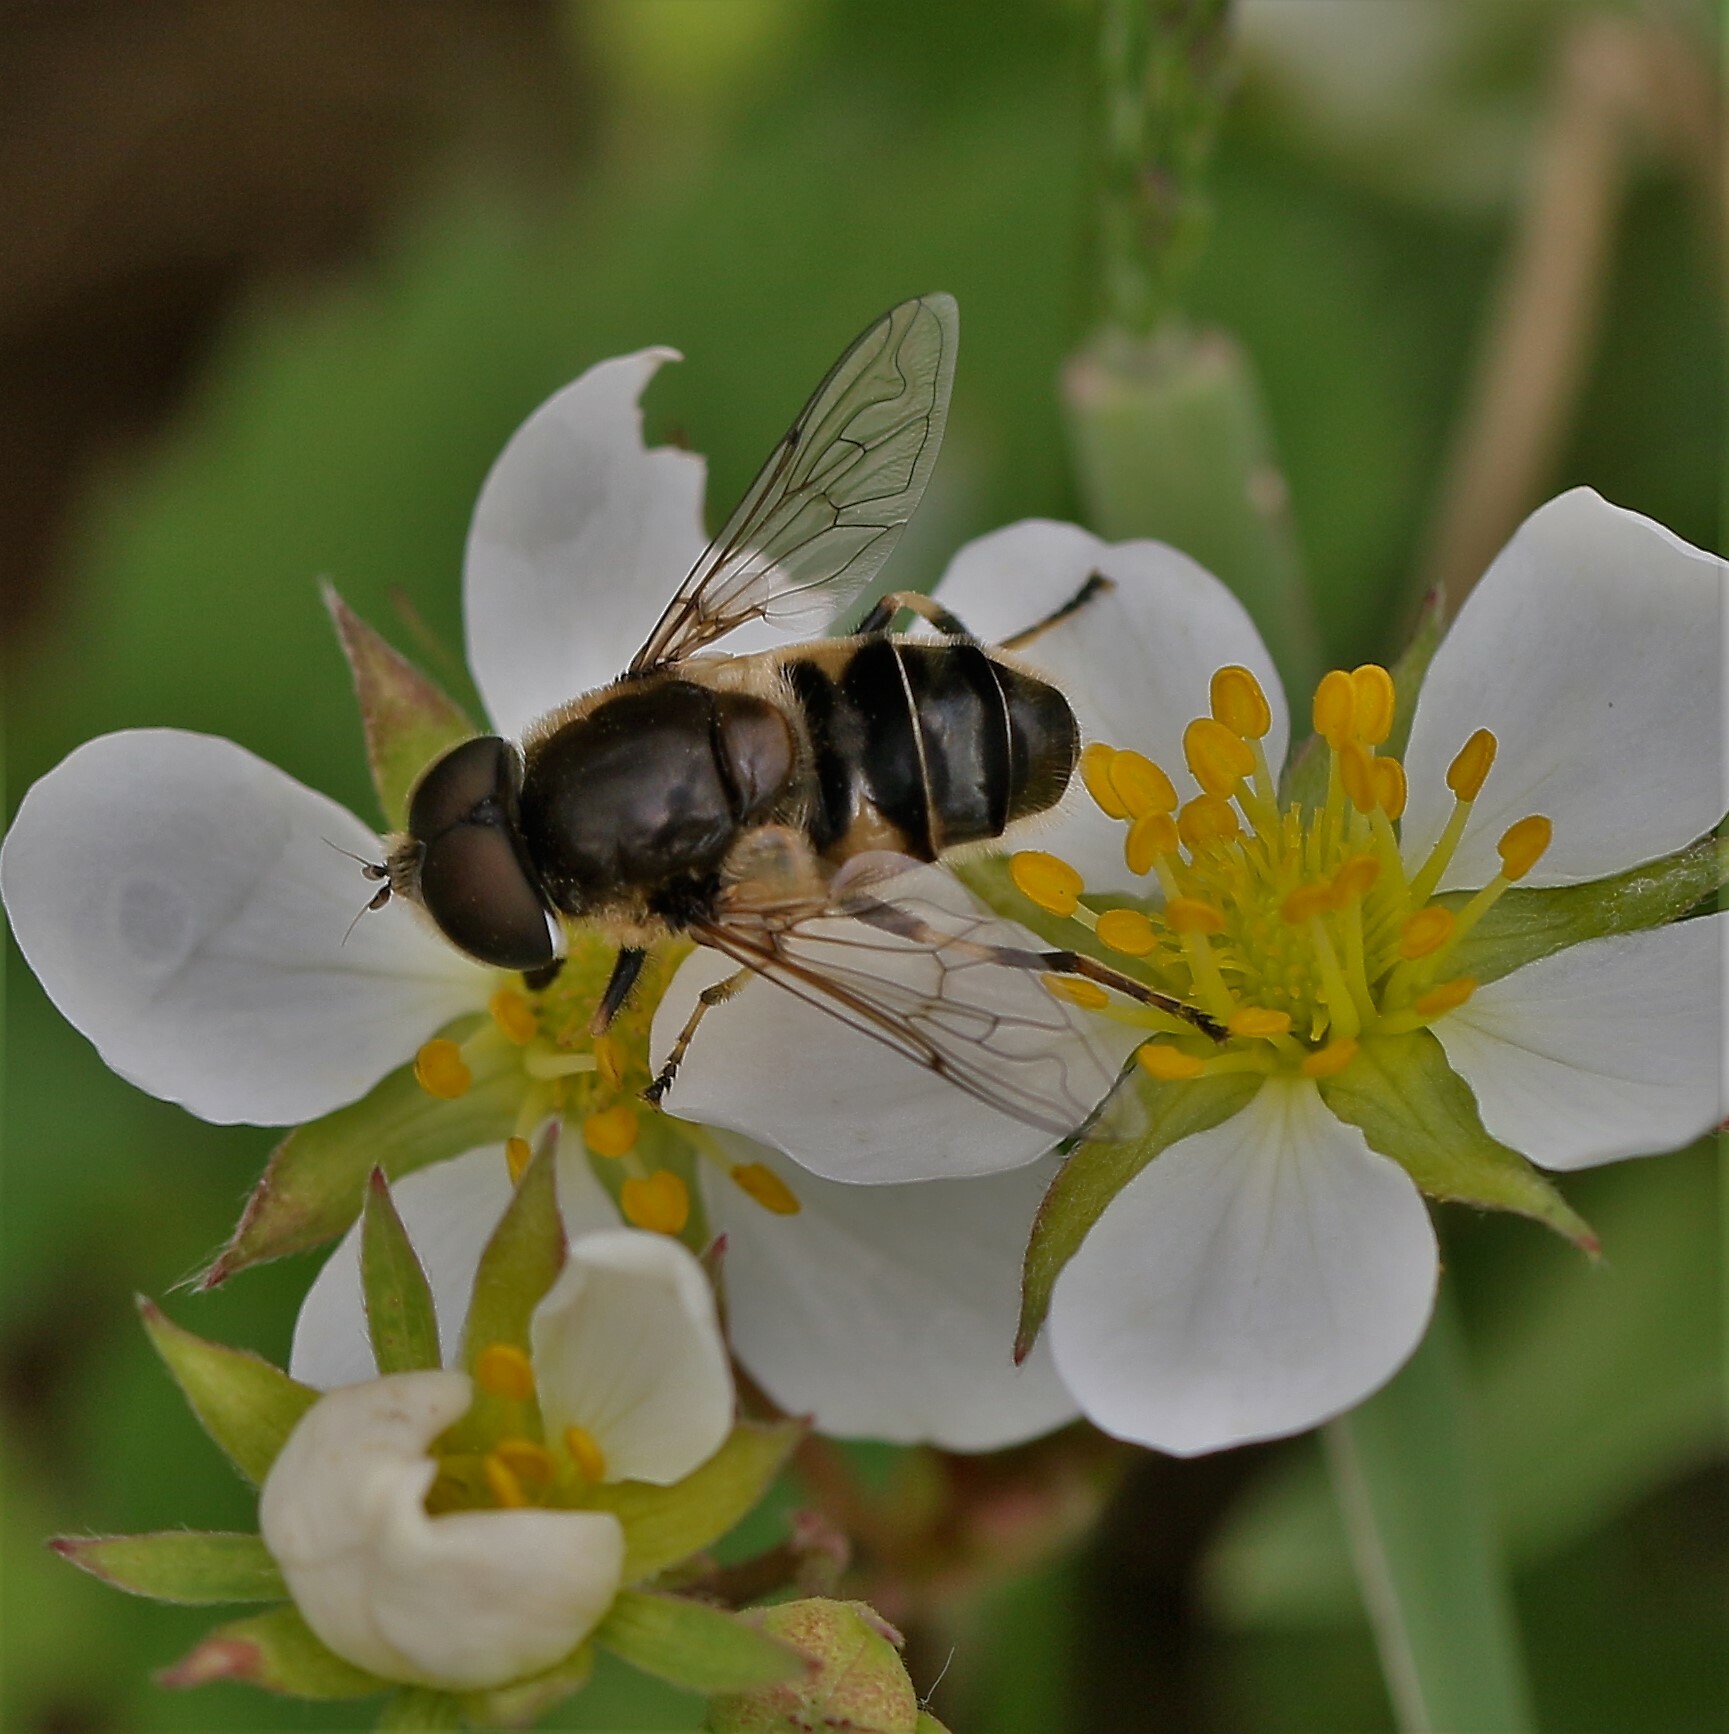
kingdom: Animalia
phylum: Arthropoda
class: Insecta
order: Diptera
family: Syrphidae
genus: Eristalis
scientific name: Eristalis obscura
